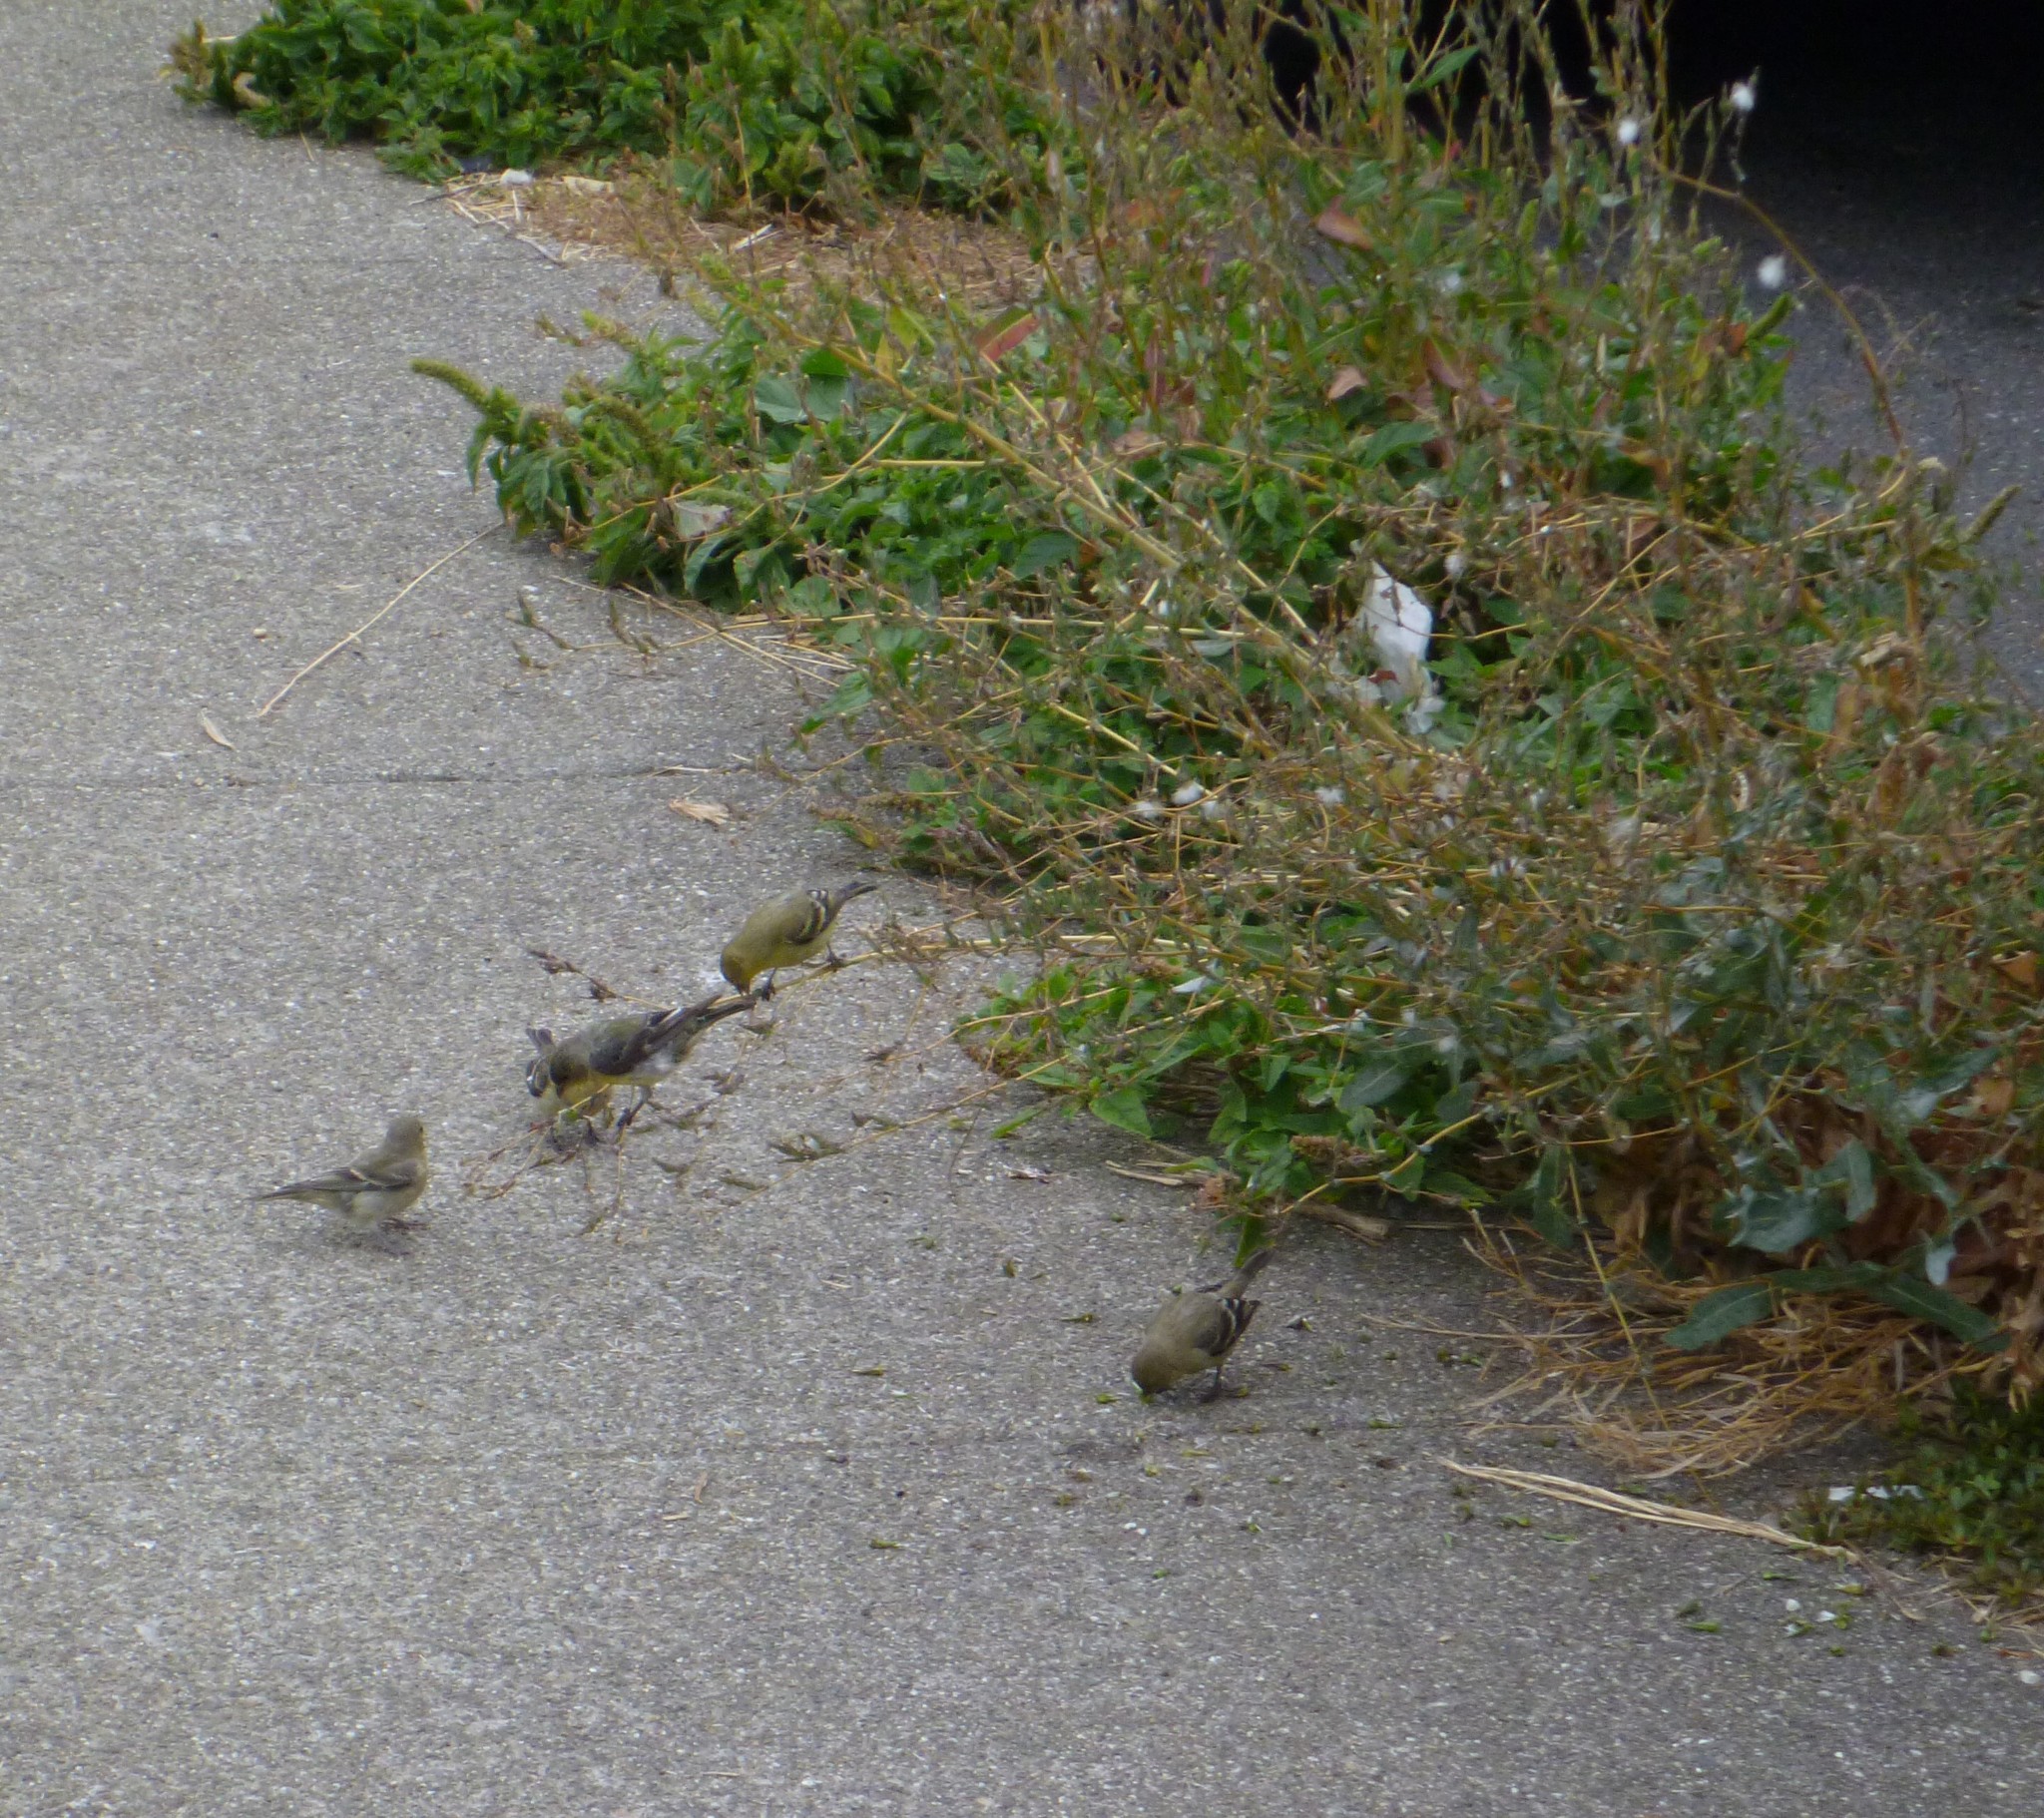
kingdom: Animalia
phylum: Chordata
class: Aves
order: Passeriformes
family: Fringillidae
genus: Spinus
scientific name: Spinus psaltria
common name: Lesser goldfinch
